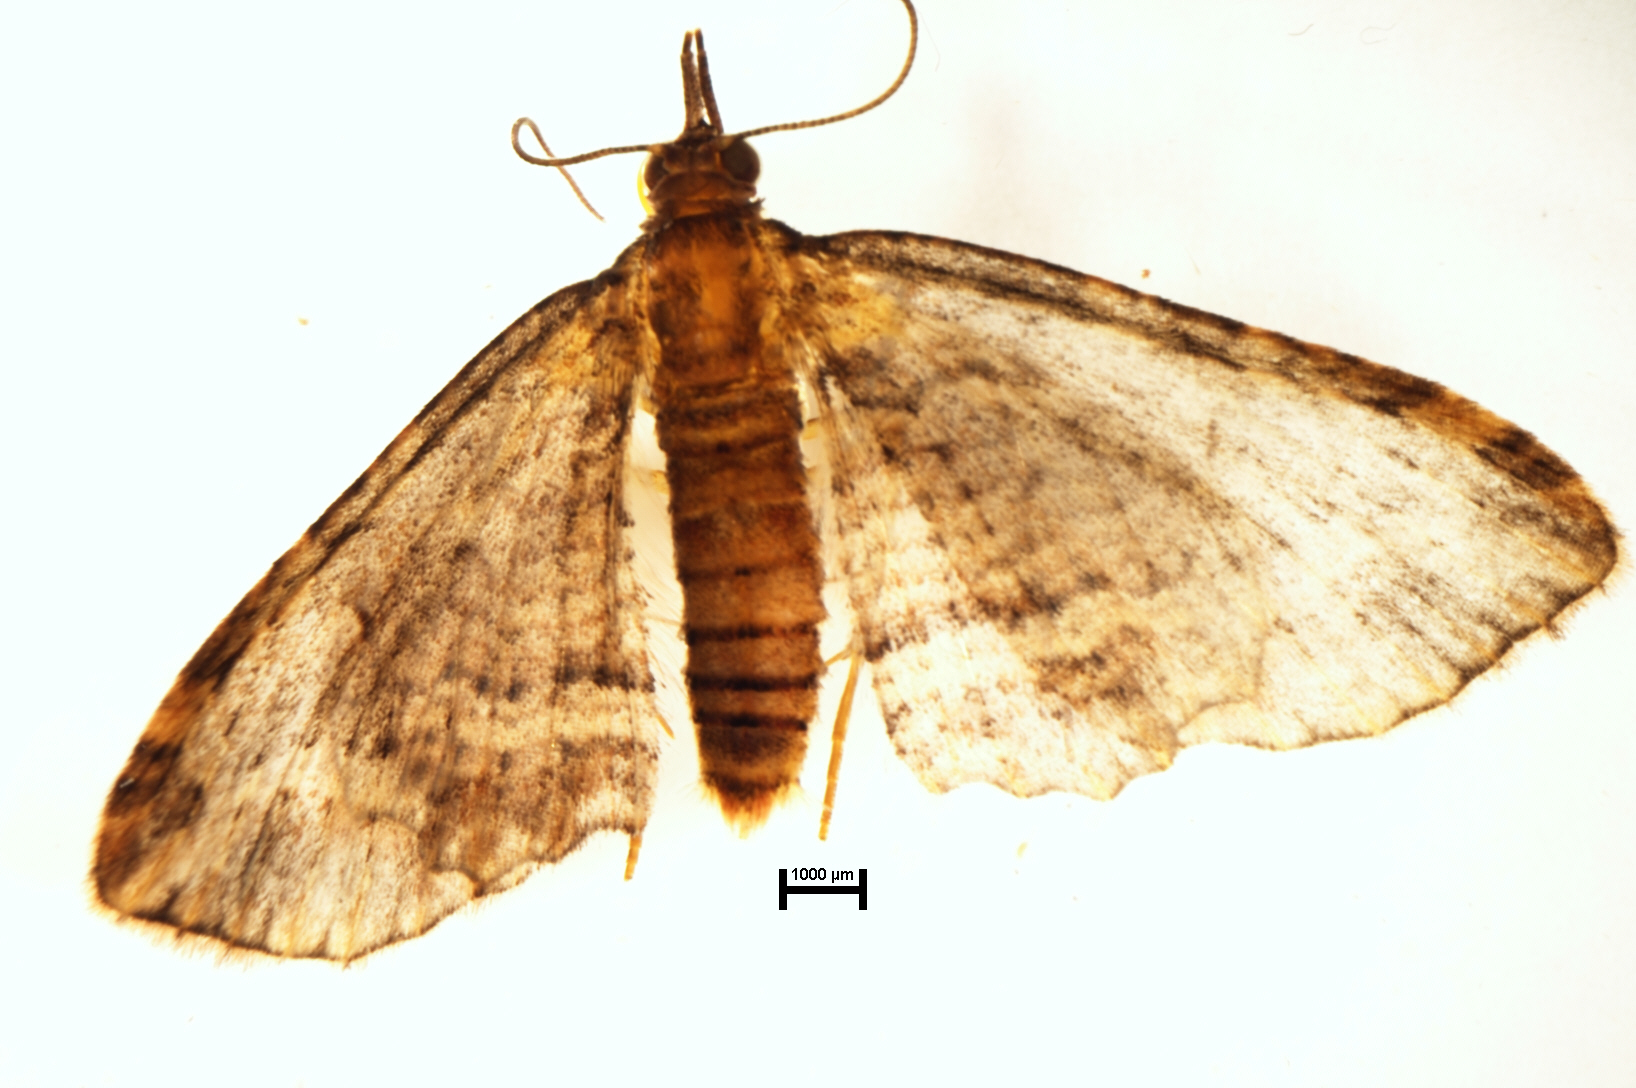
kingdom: Animalia
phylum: Arthropoda
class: Insecta
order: Lepidoptera
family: Geometridae
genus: Chloroclystis
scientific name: Chloroclystis filata
